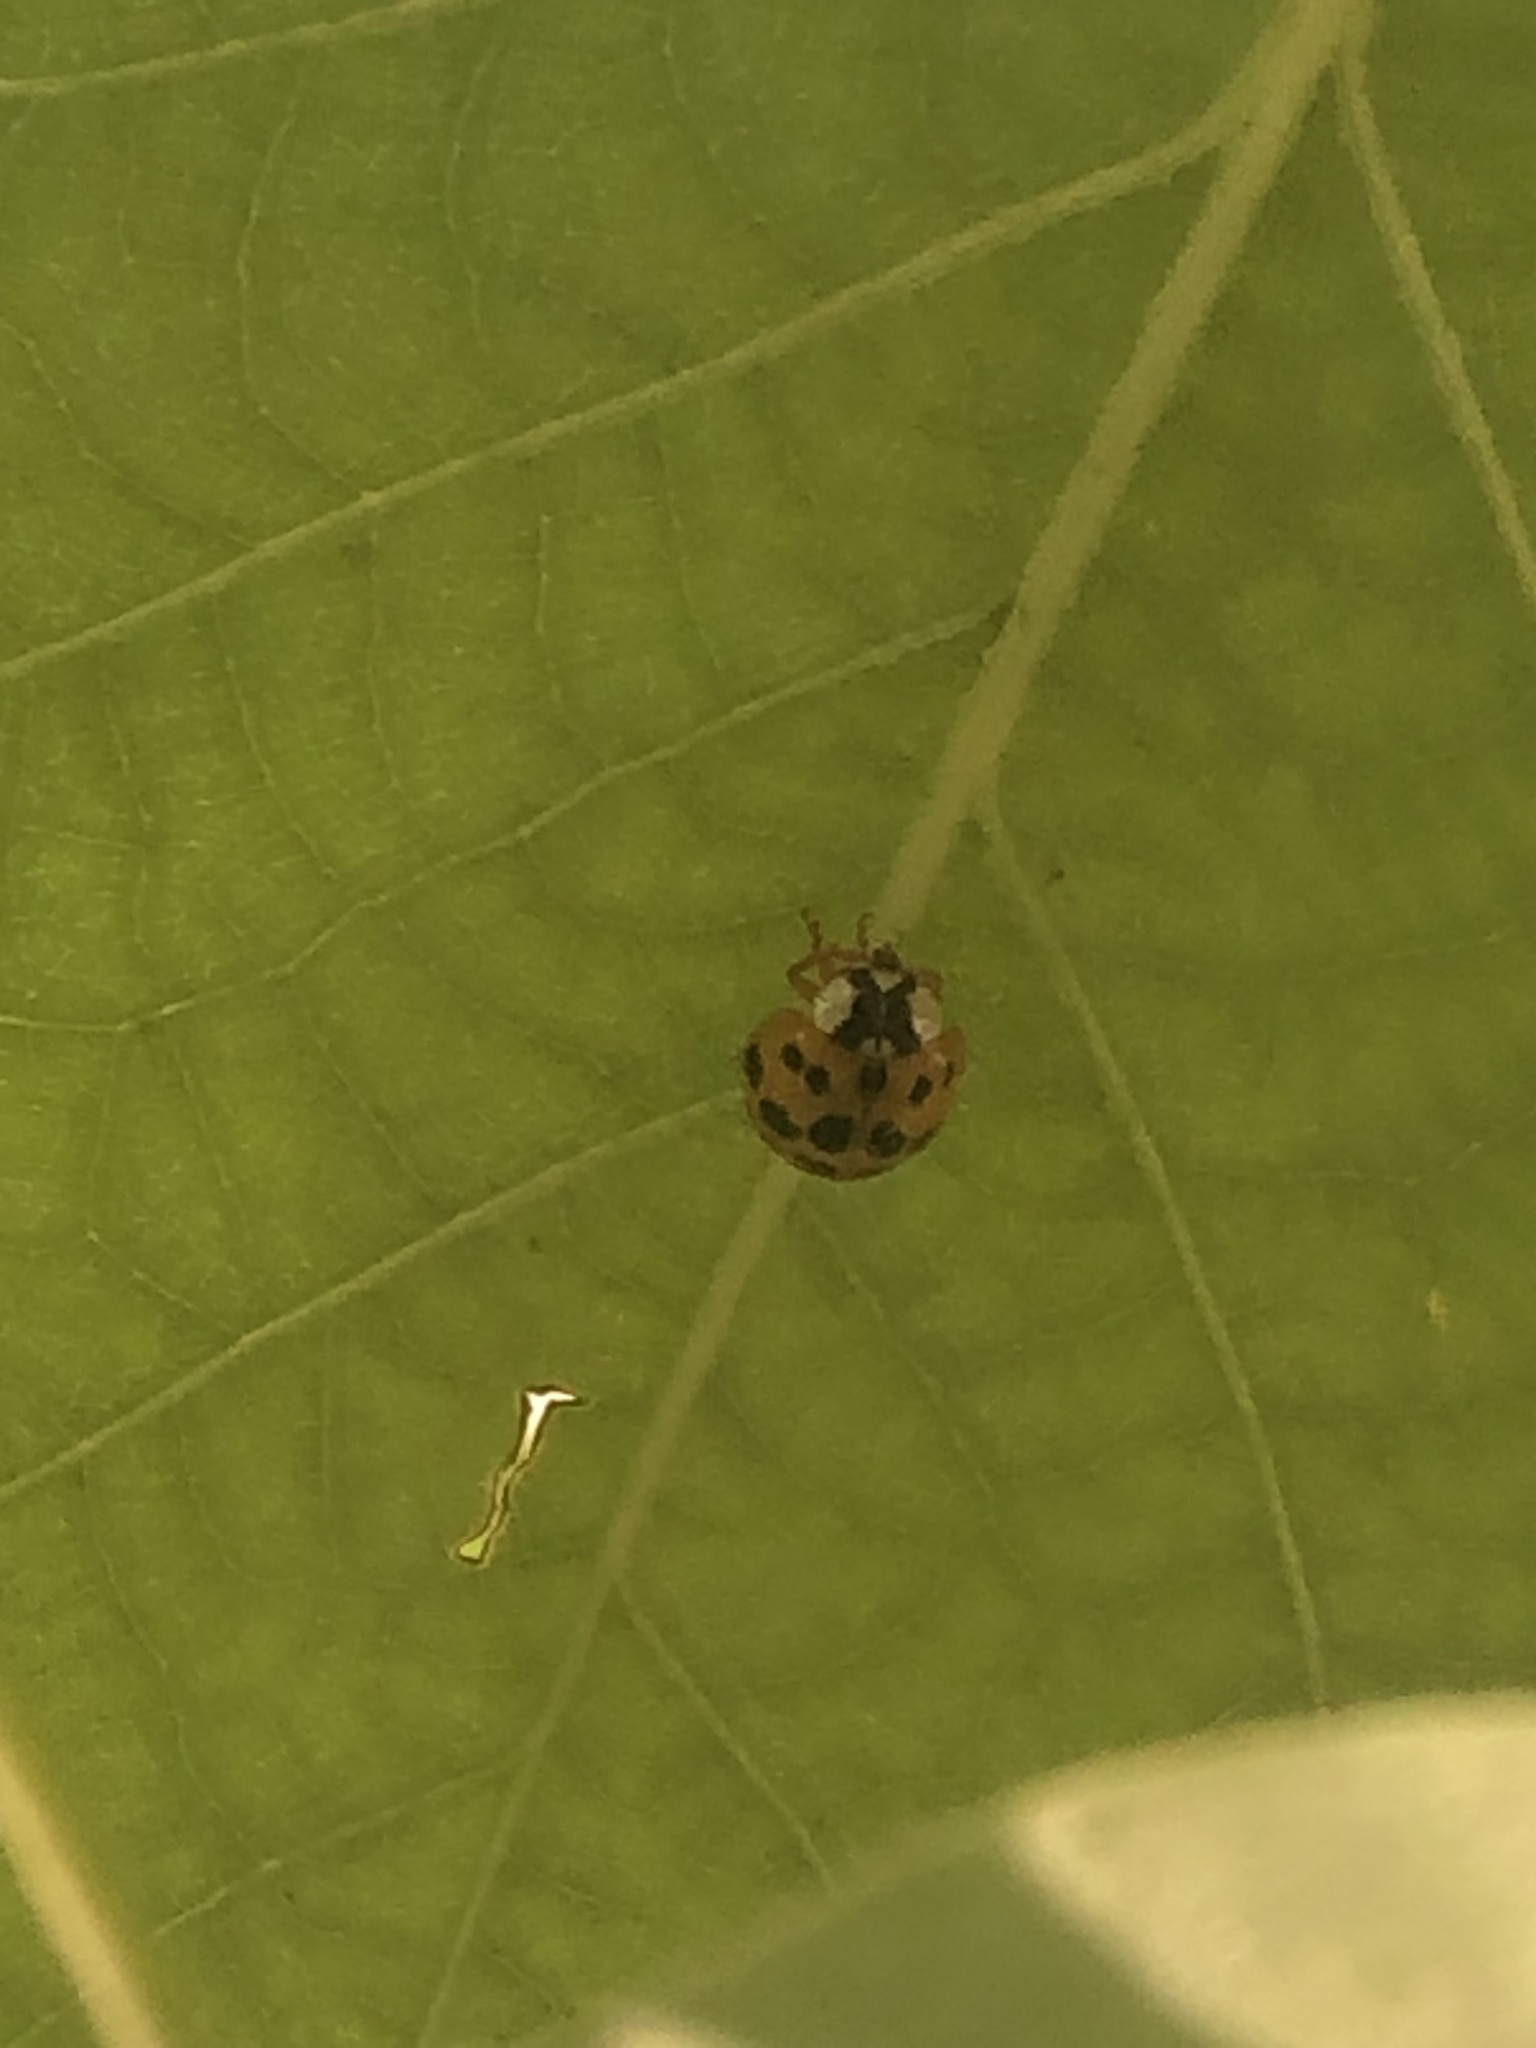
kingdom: Animalia
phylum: Arthropoda
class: Insecta
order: Coleoptera
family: Coccinellidae
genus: Harmonia
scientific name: Harmonia axyridis
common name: Harlequin ladybird
